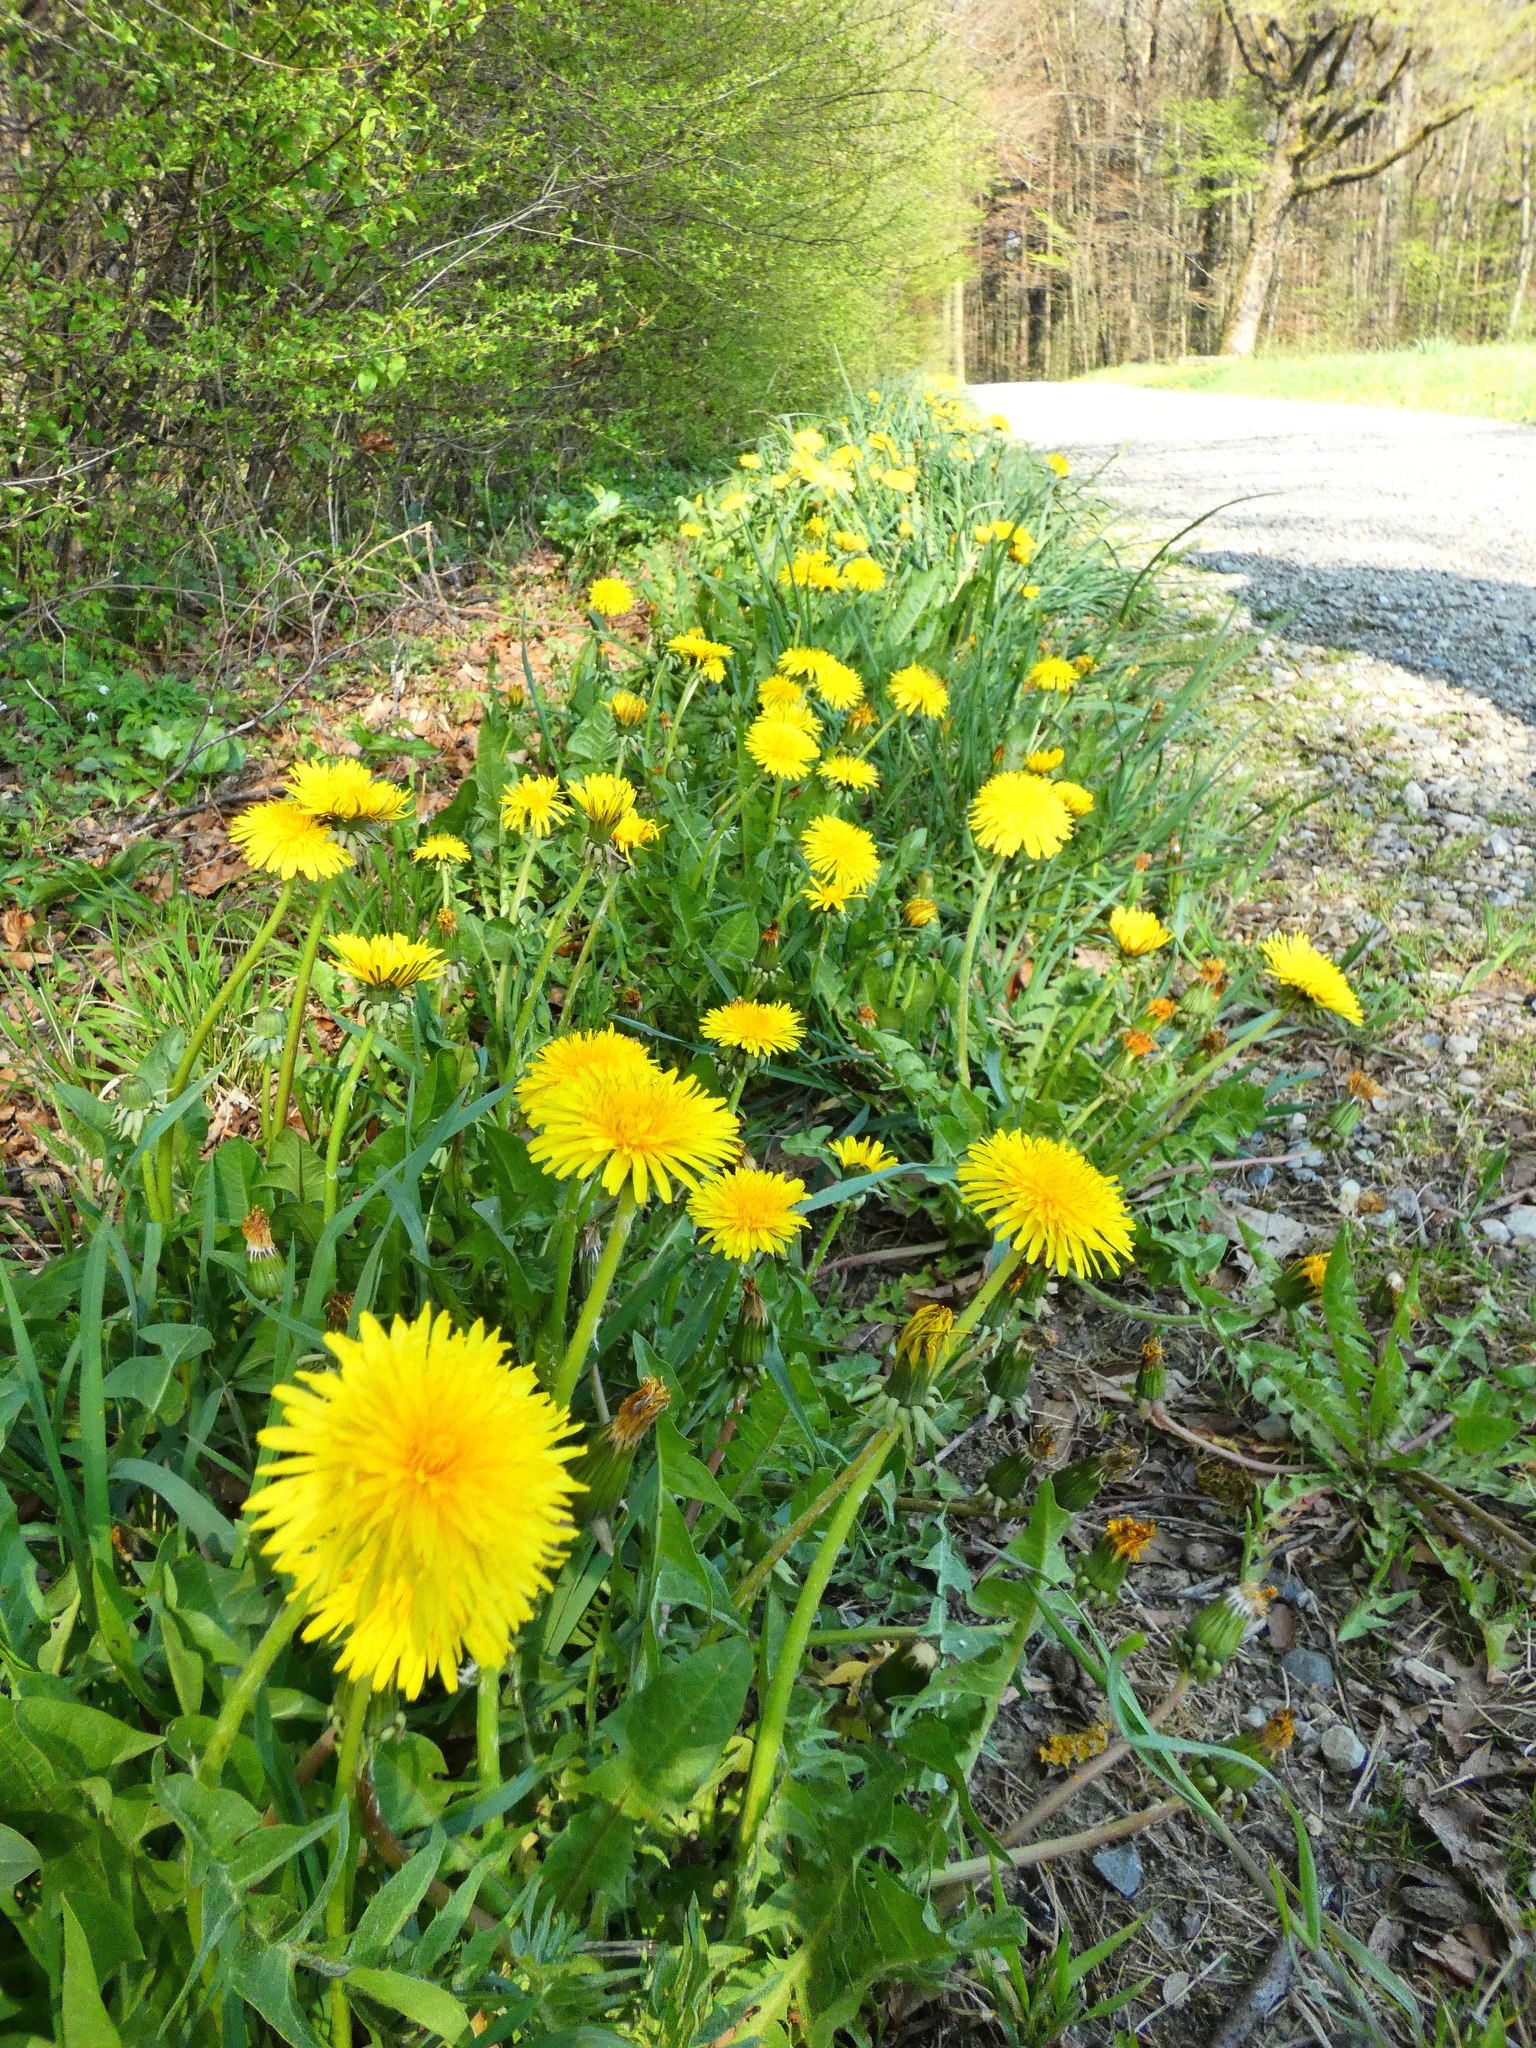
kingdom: Plantae
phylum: Tracheophyta
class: Magnoliopsida
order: Asterales
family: Asteraceae
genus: Taraxacum
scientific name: Taraxacum
